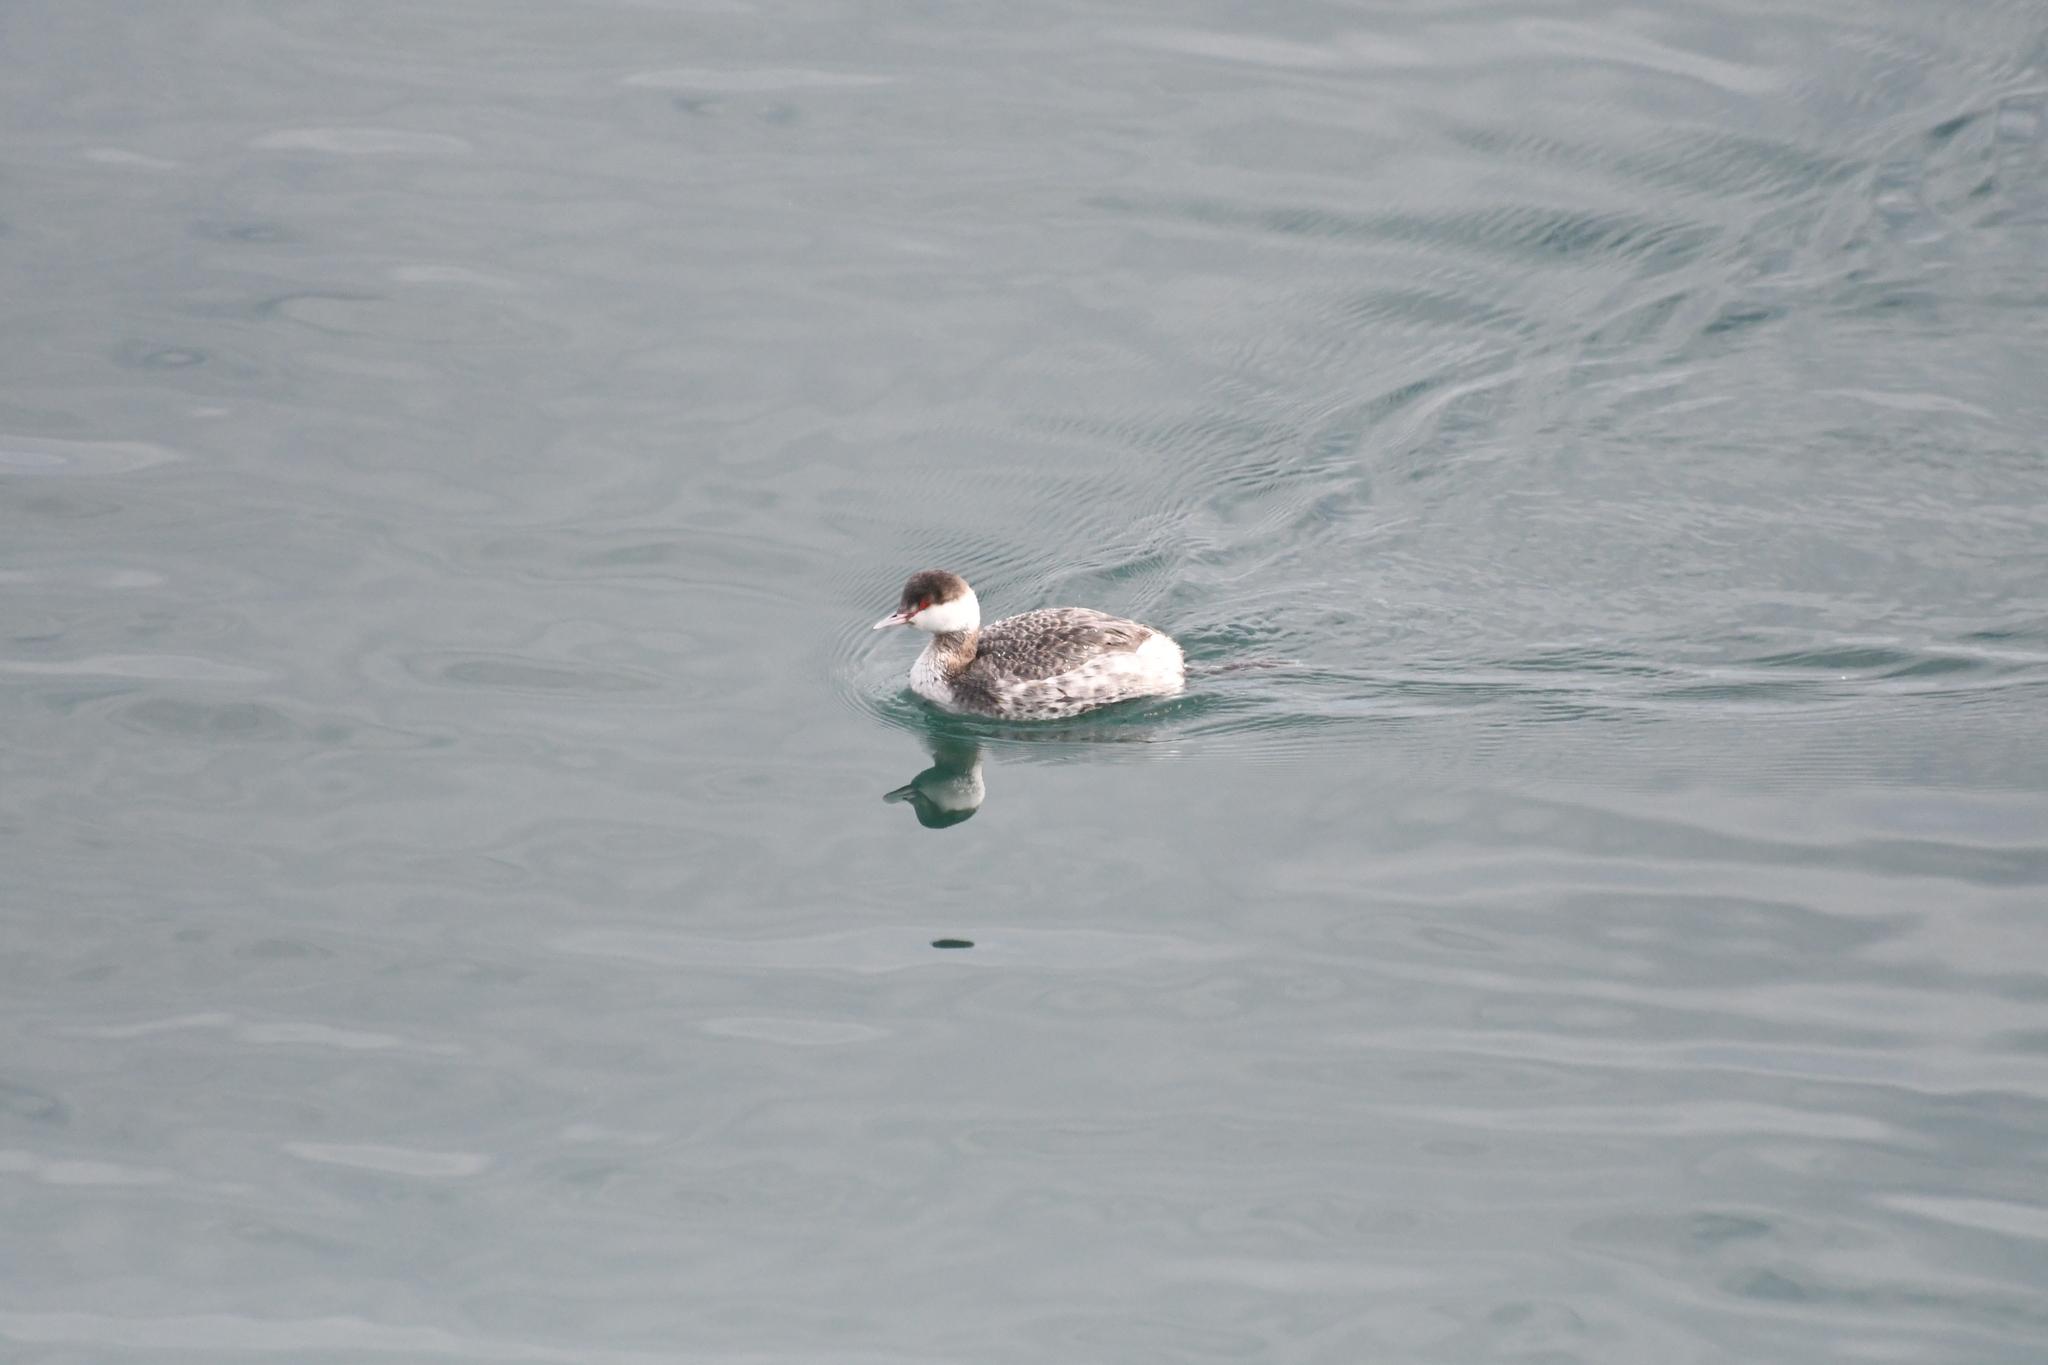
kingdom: Animalia
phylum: Chordata
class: Aves
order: Podicipediformes
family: Podicipedidae
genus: Podiceps
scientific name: Podiceps auritus
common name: Horned grebe
